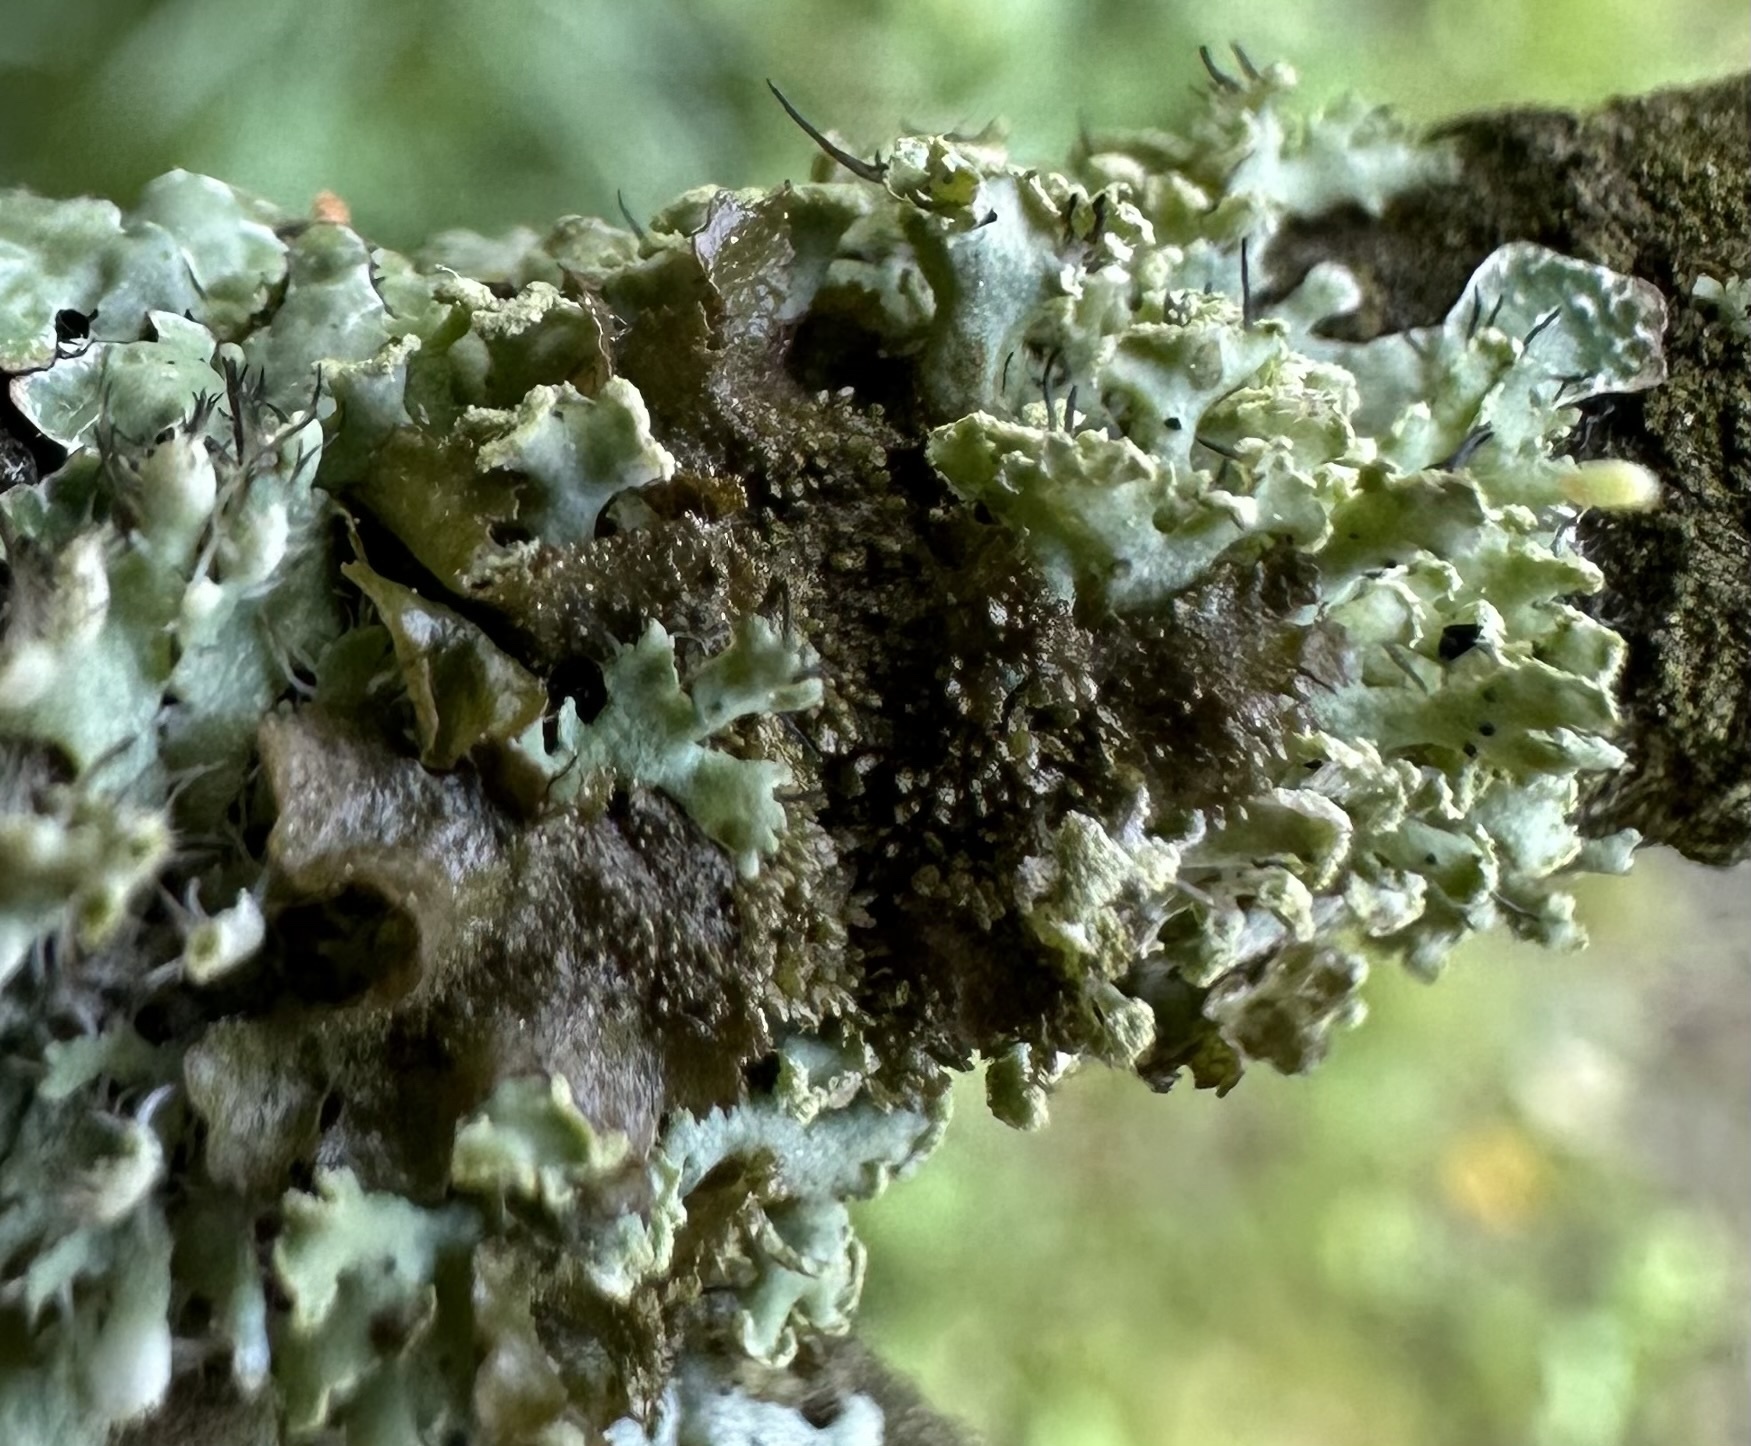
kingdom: Fungi
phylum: Ascomycota
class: Lecanoromycetes
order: Caliciales
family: Physciaceae
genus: Physcia
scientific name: Physcia tenella
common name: Fringed rosette lichen
